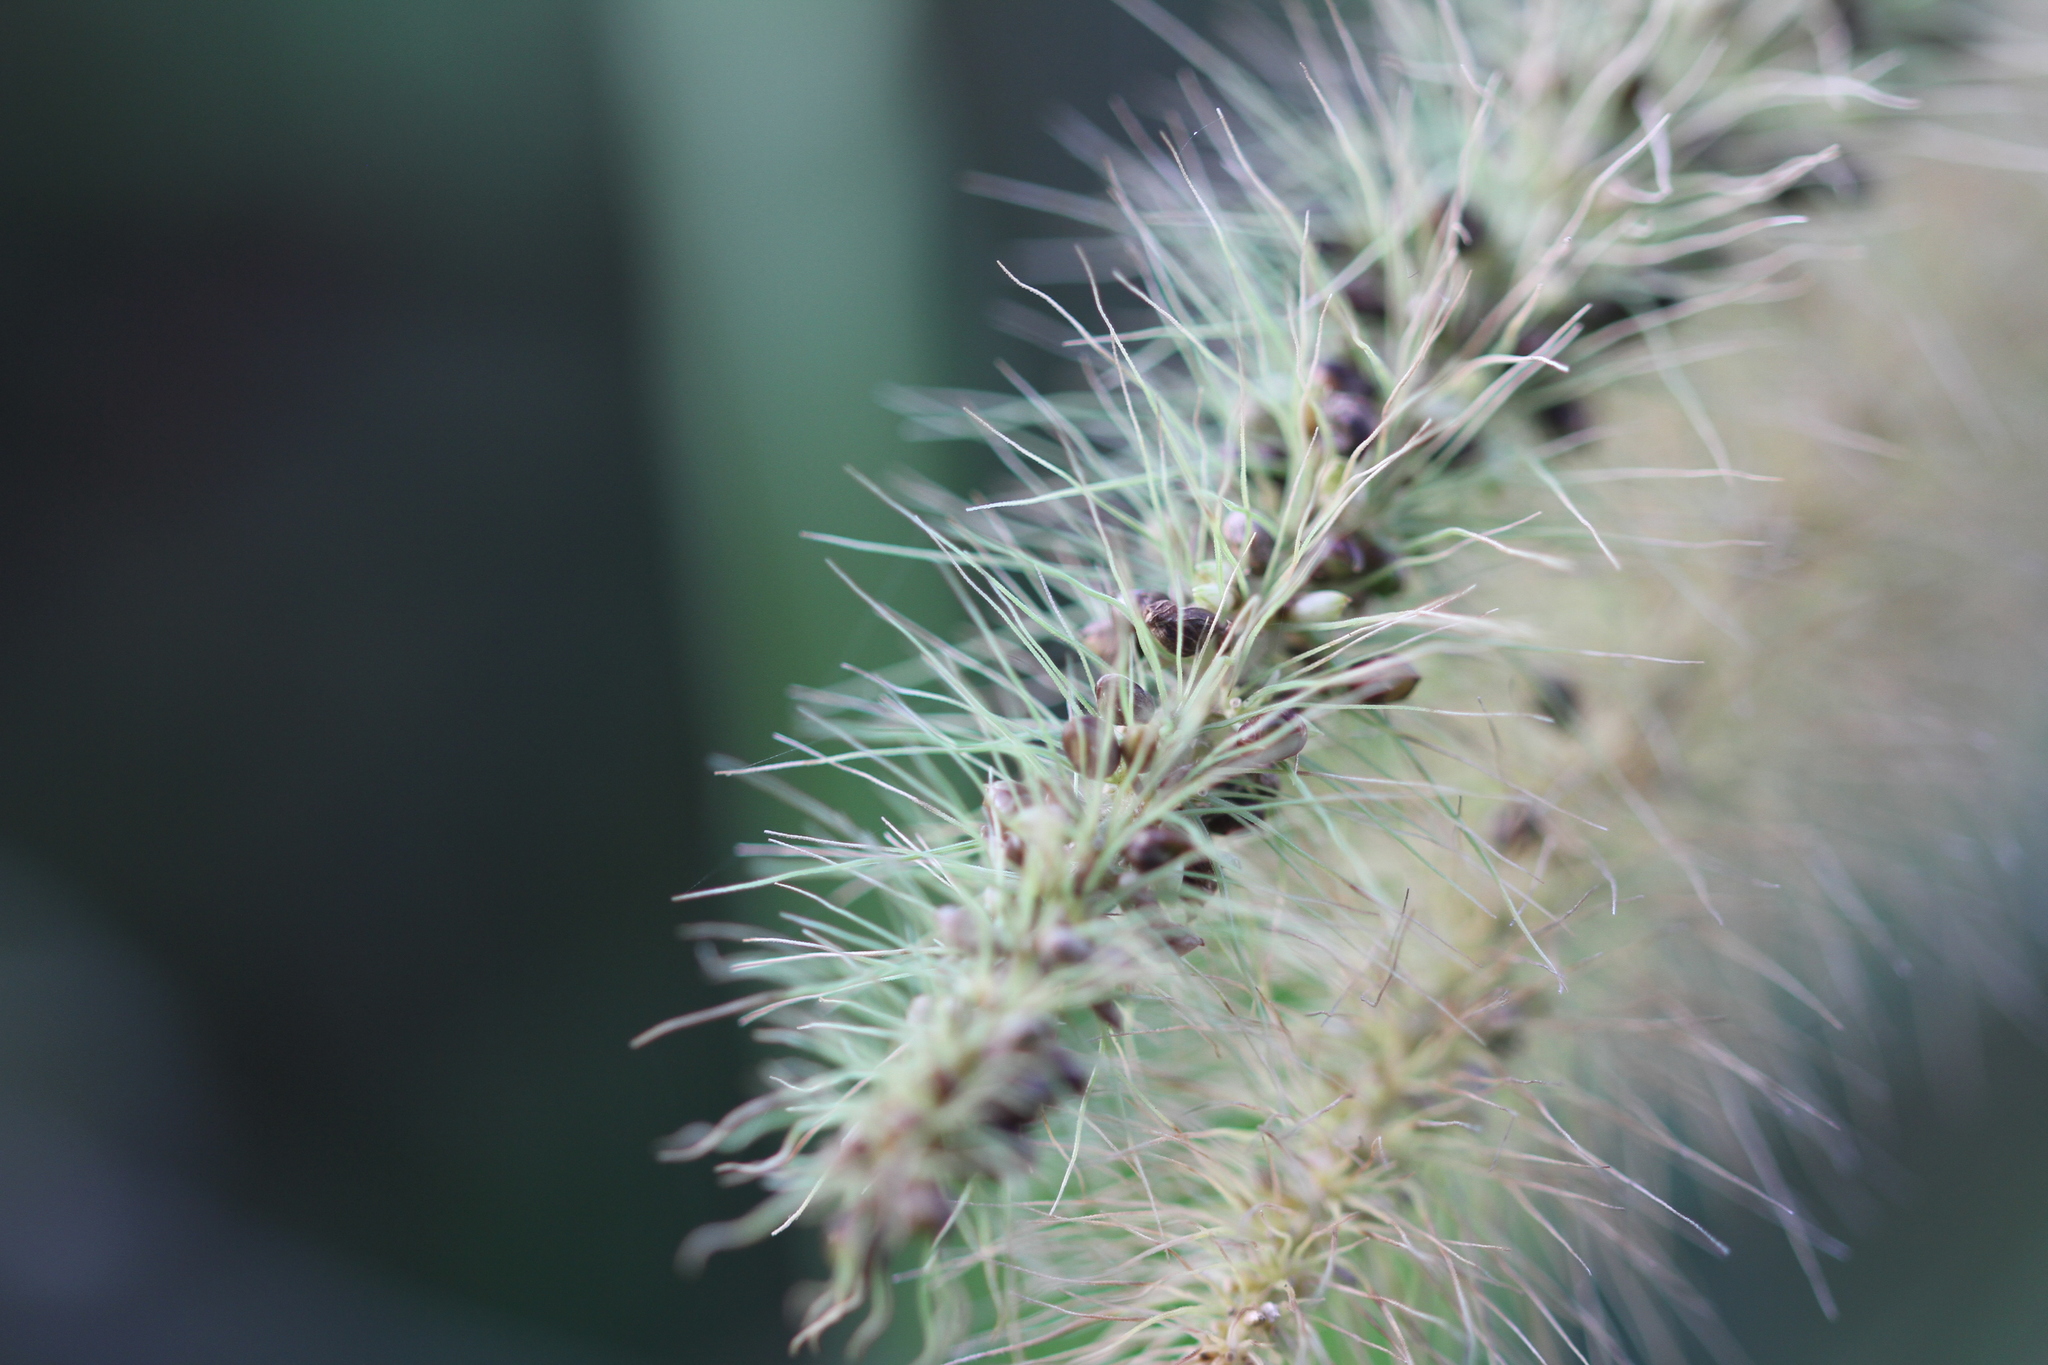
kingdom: Plantae
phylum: Tracheophyta
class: Liliopsida
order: Poales
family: Poaceae
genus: Setaria
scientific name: Setaria tenax
